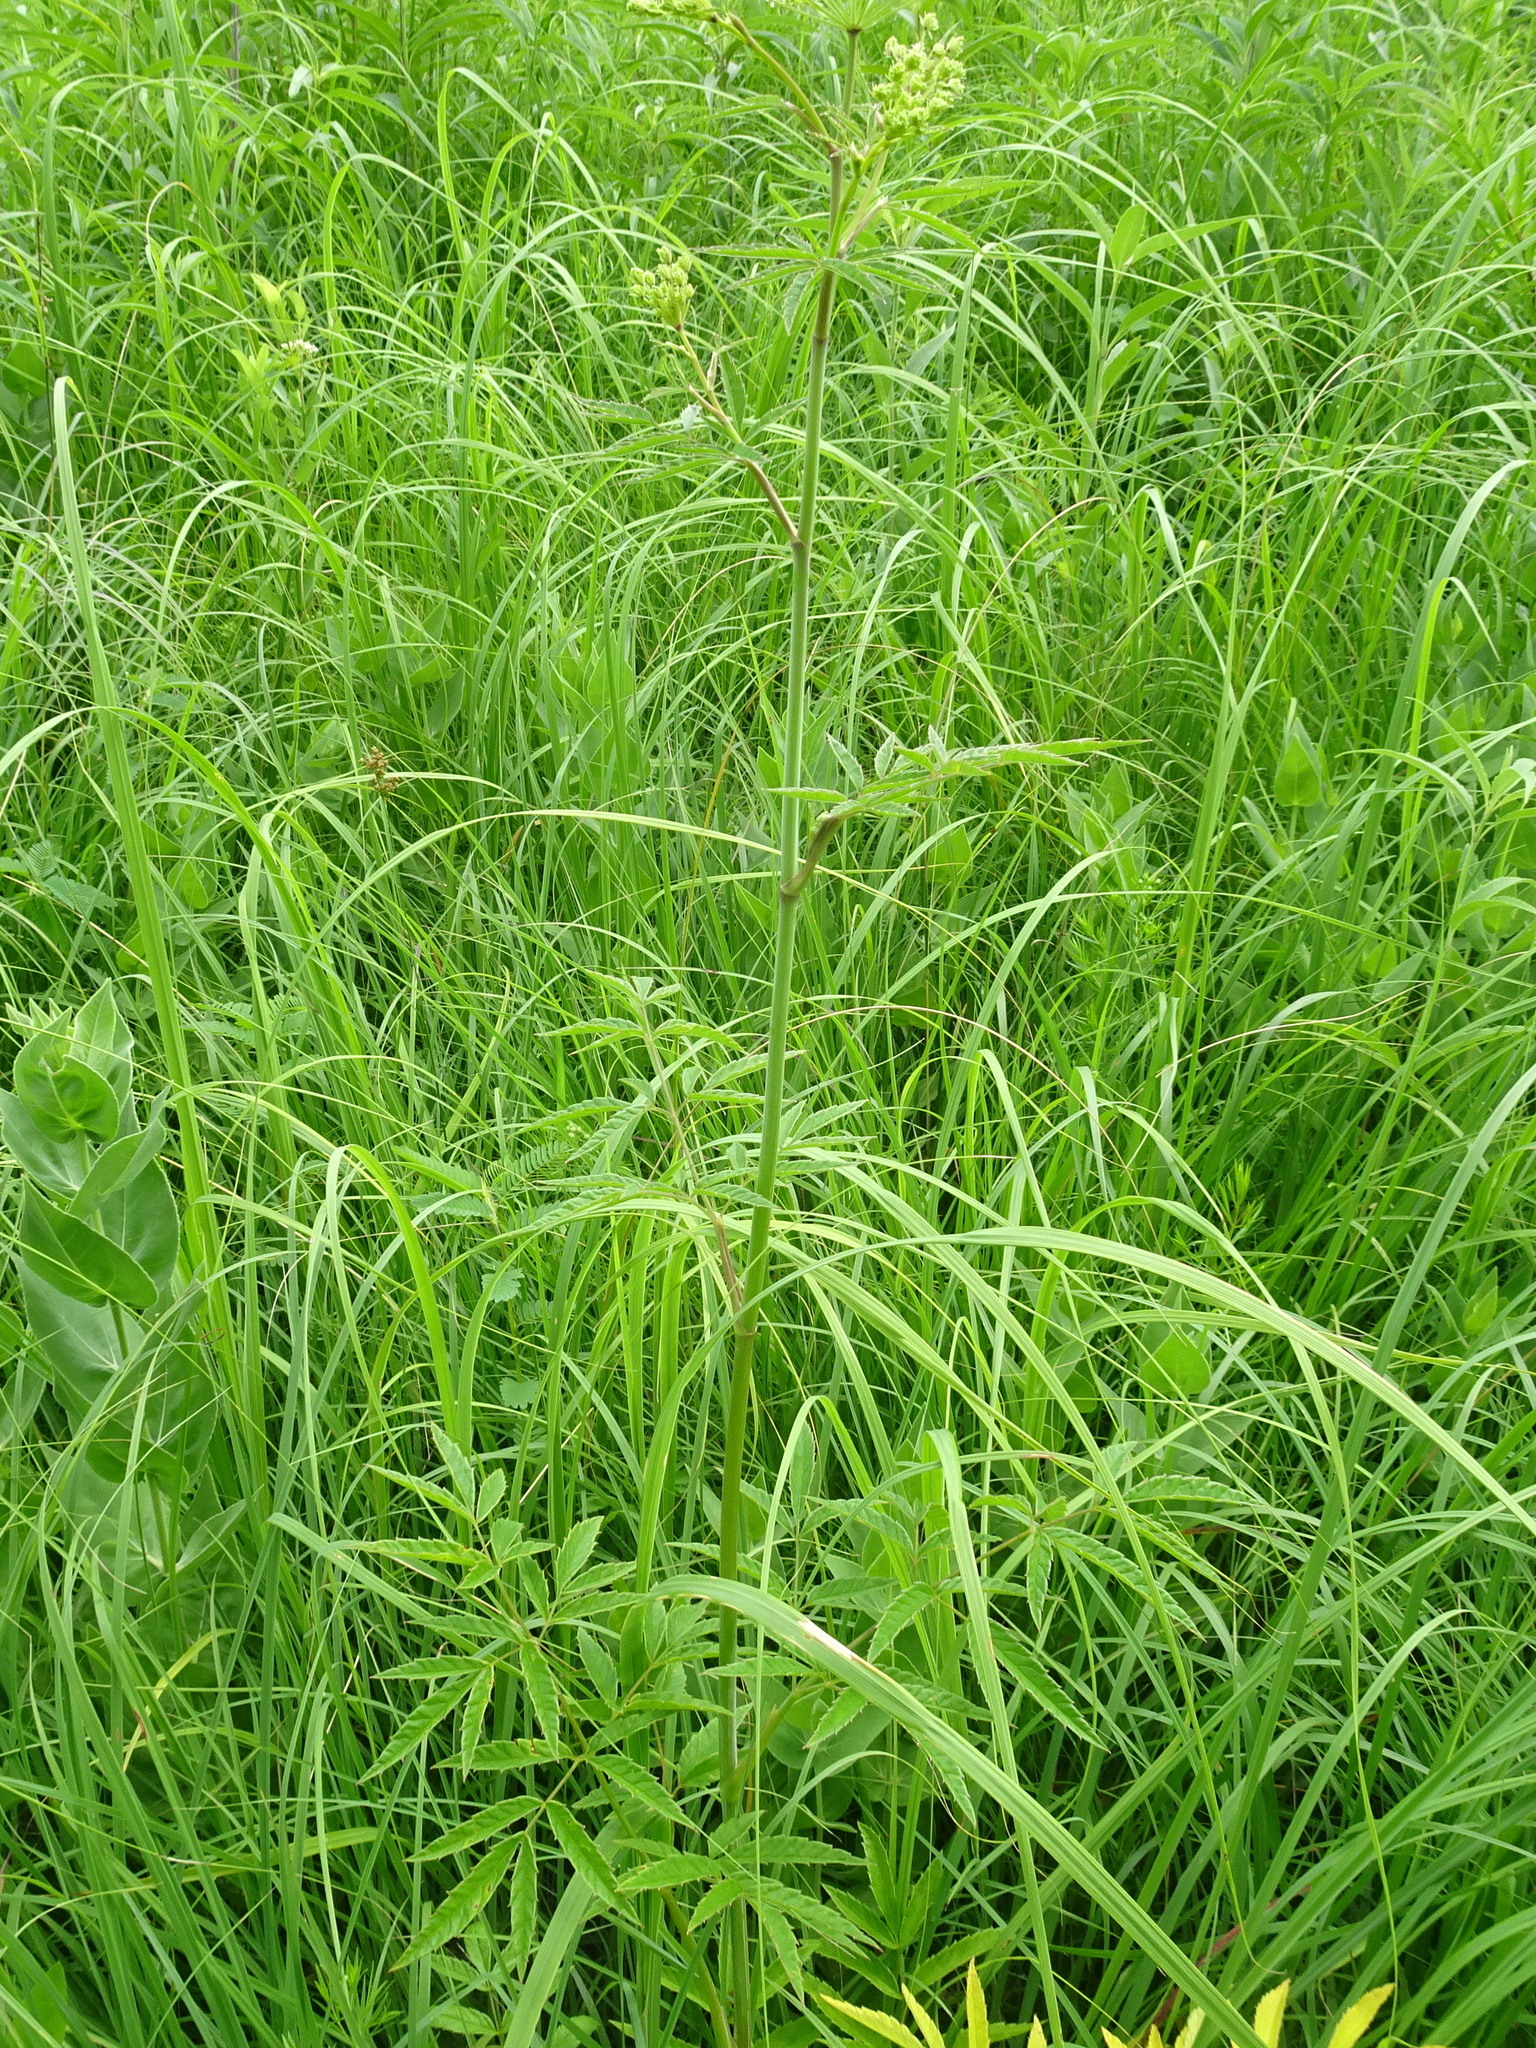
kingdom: Plantae
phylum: Tracheophyta
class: Magnoliopsida
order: Apiales
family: Apiaceae
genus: Cicuta
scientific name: Cicuta maculata
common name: Spotted cowbane
